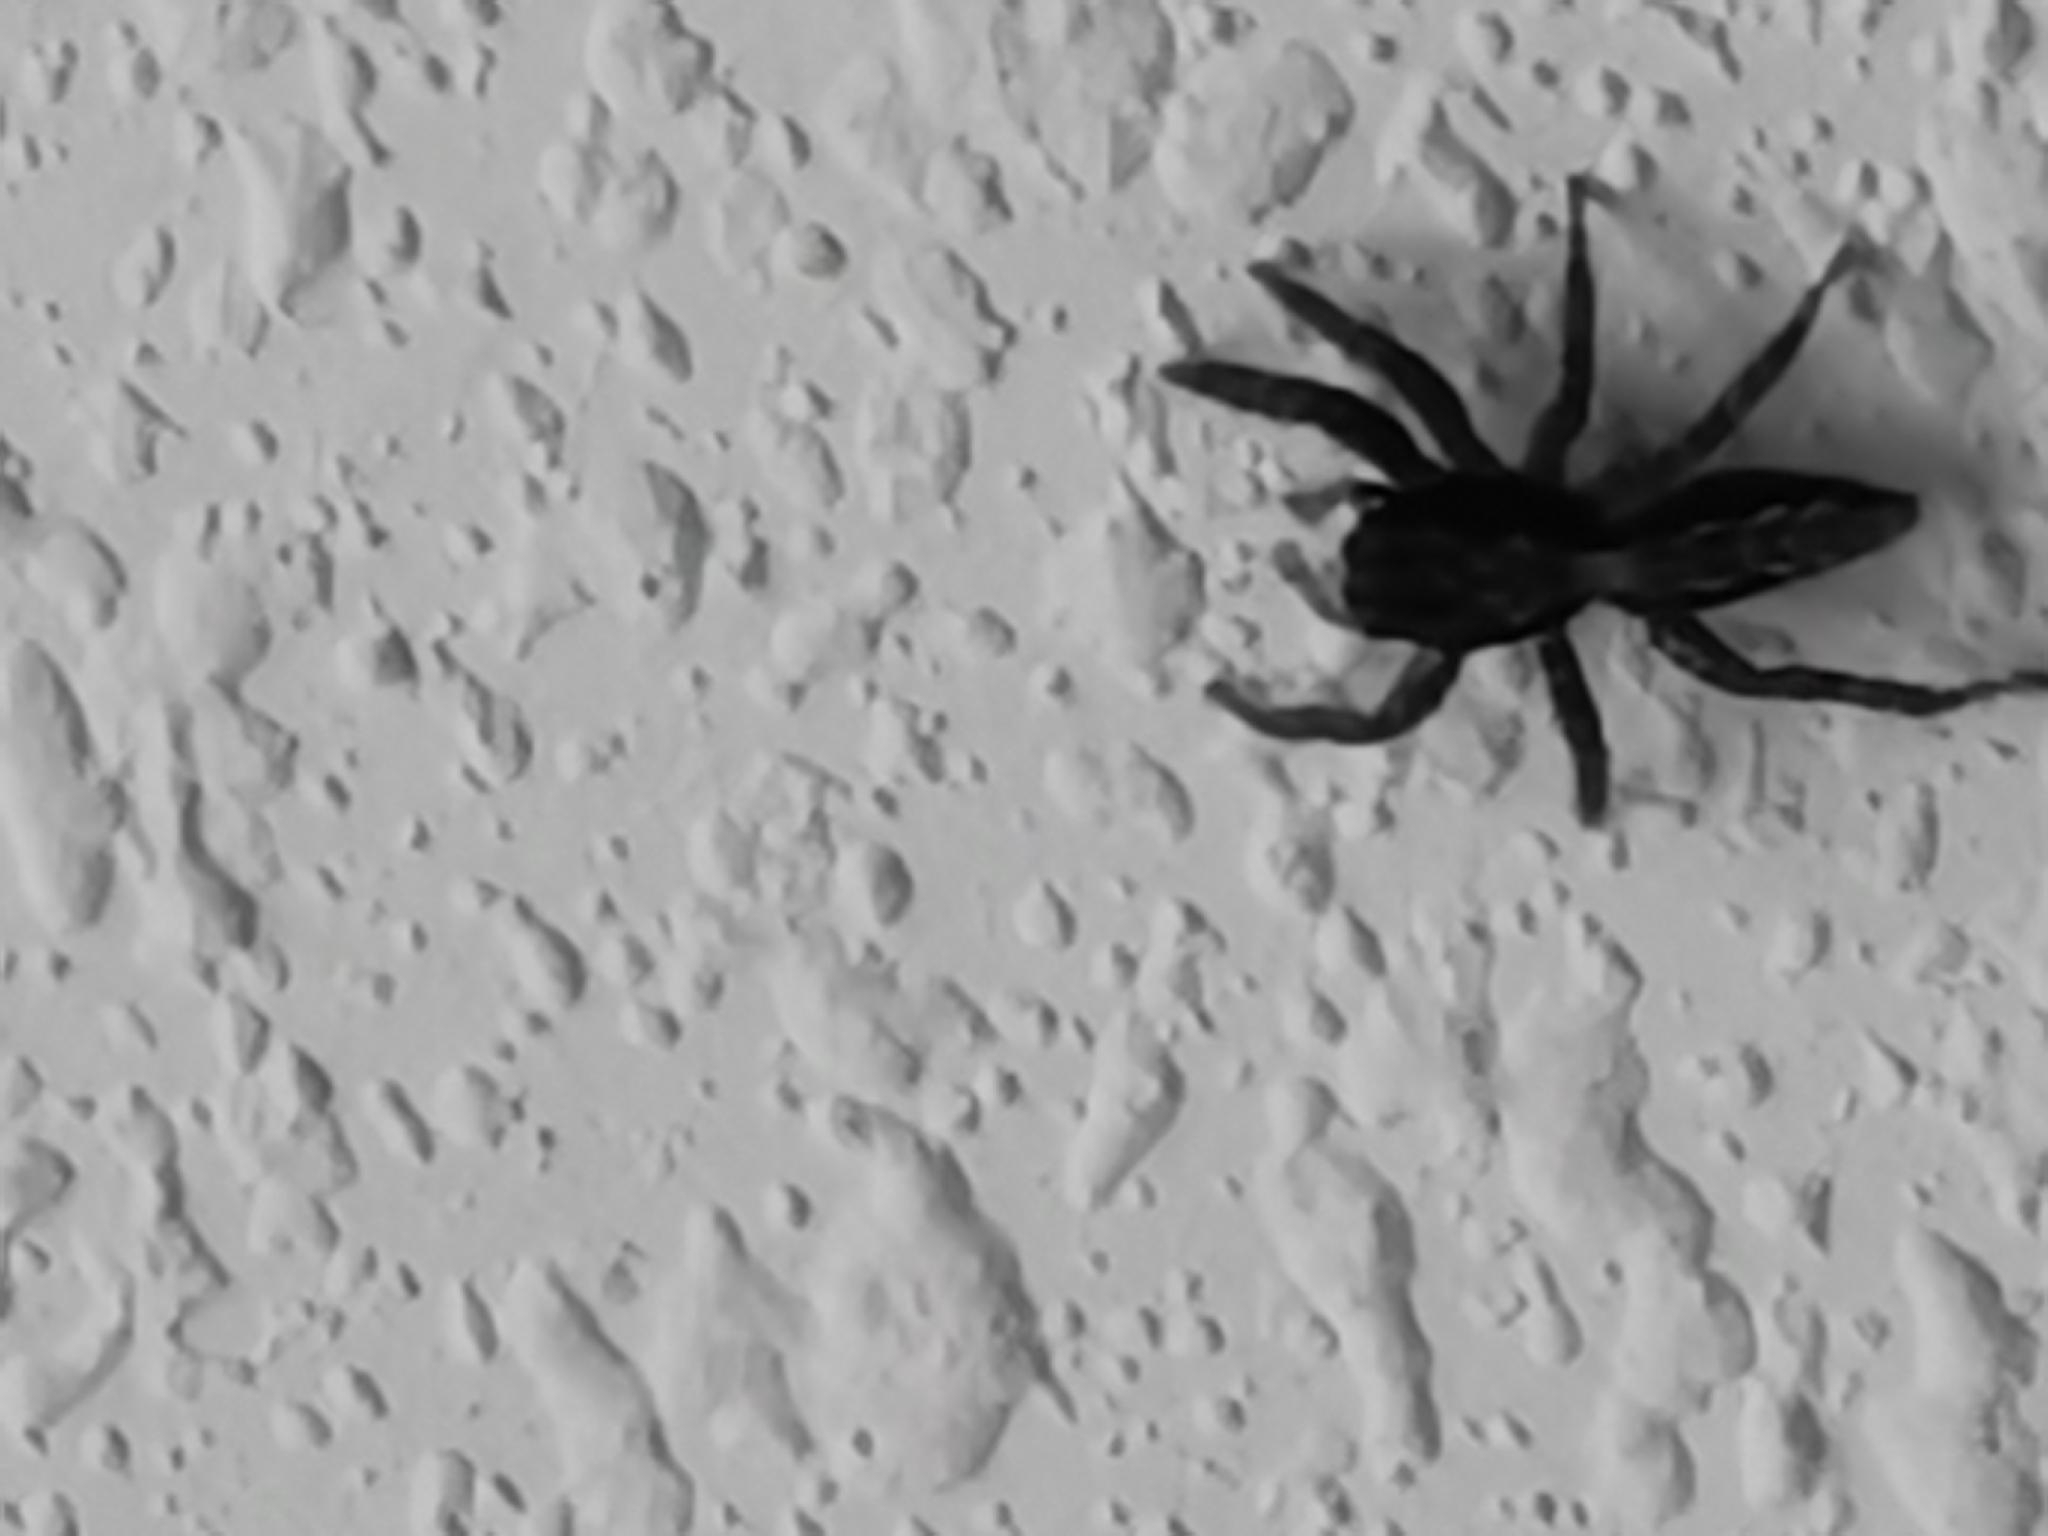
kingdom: Animalia
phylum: Arthropoda
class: Arachnida
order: Araneae
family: Salticidae
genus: Platycryptus
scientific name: Platycryptus californicus
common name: Jumping spiders
